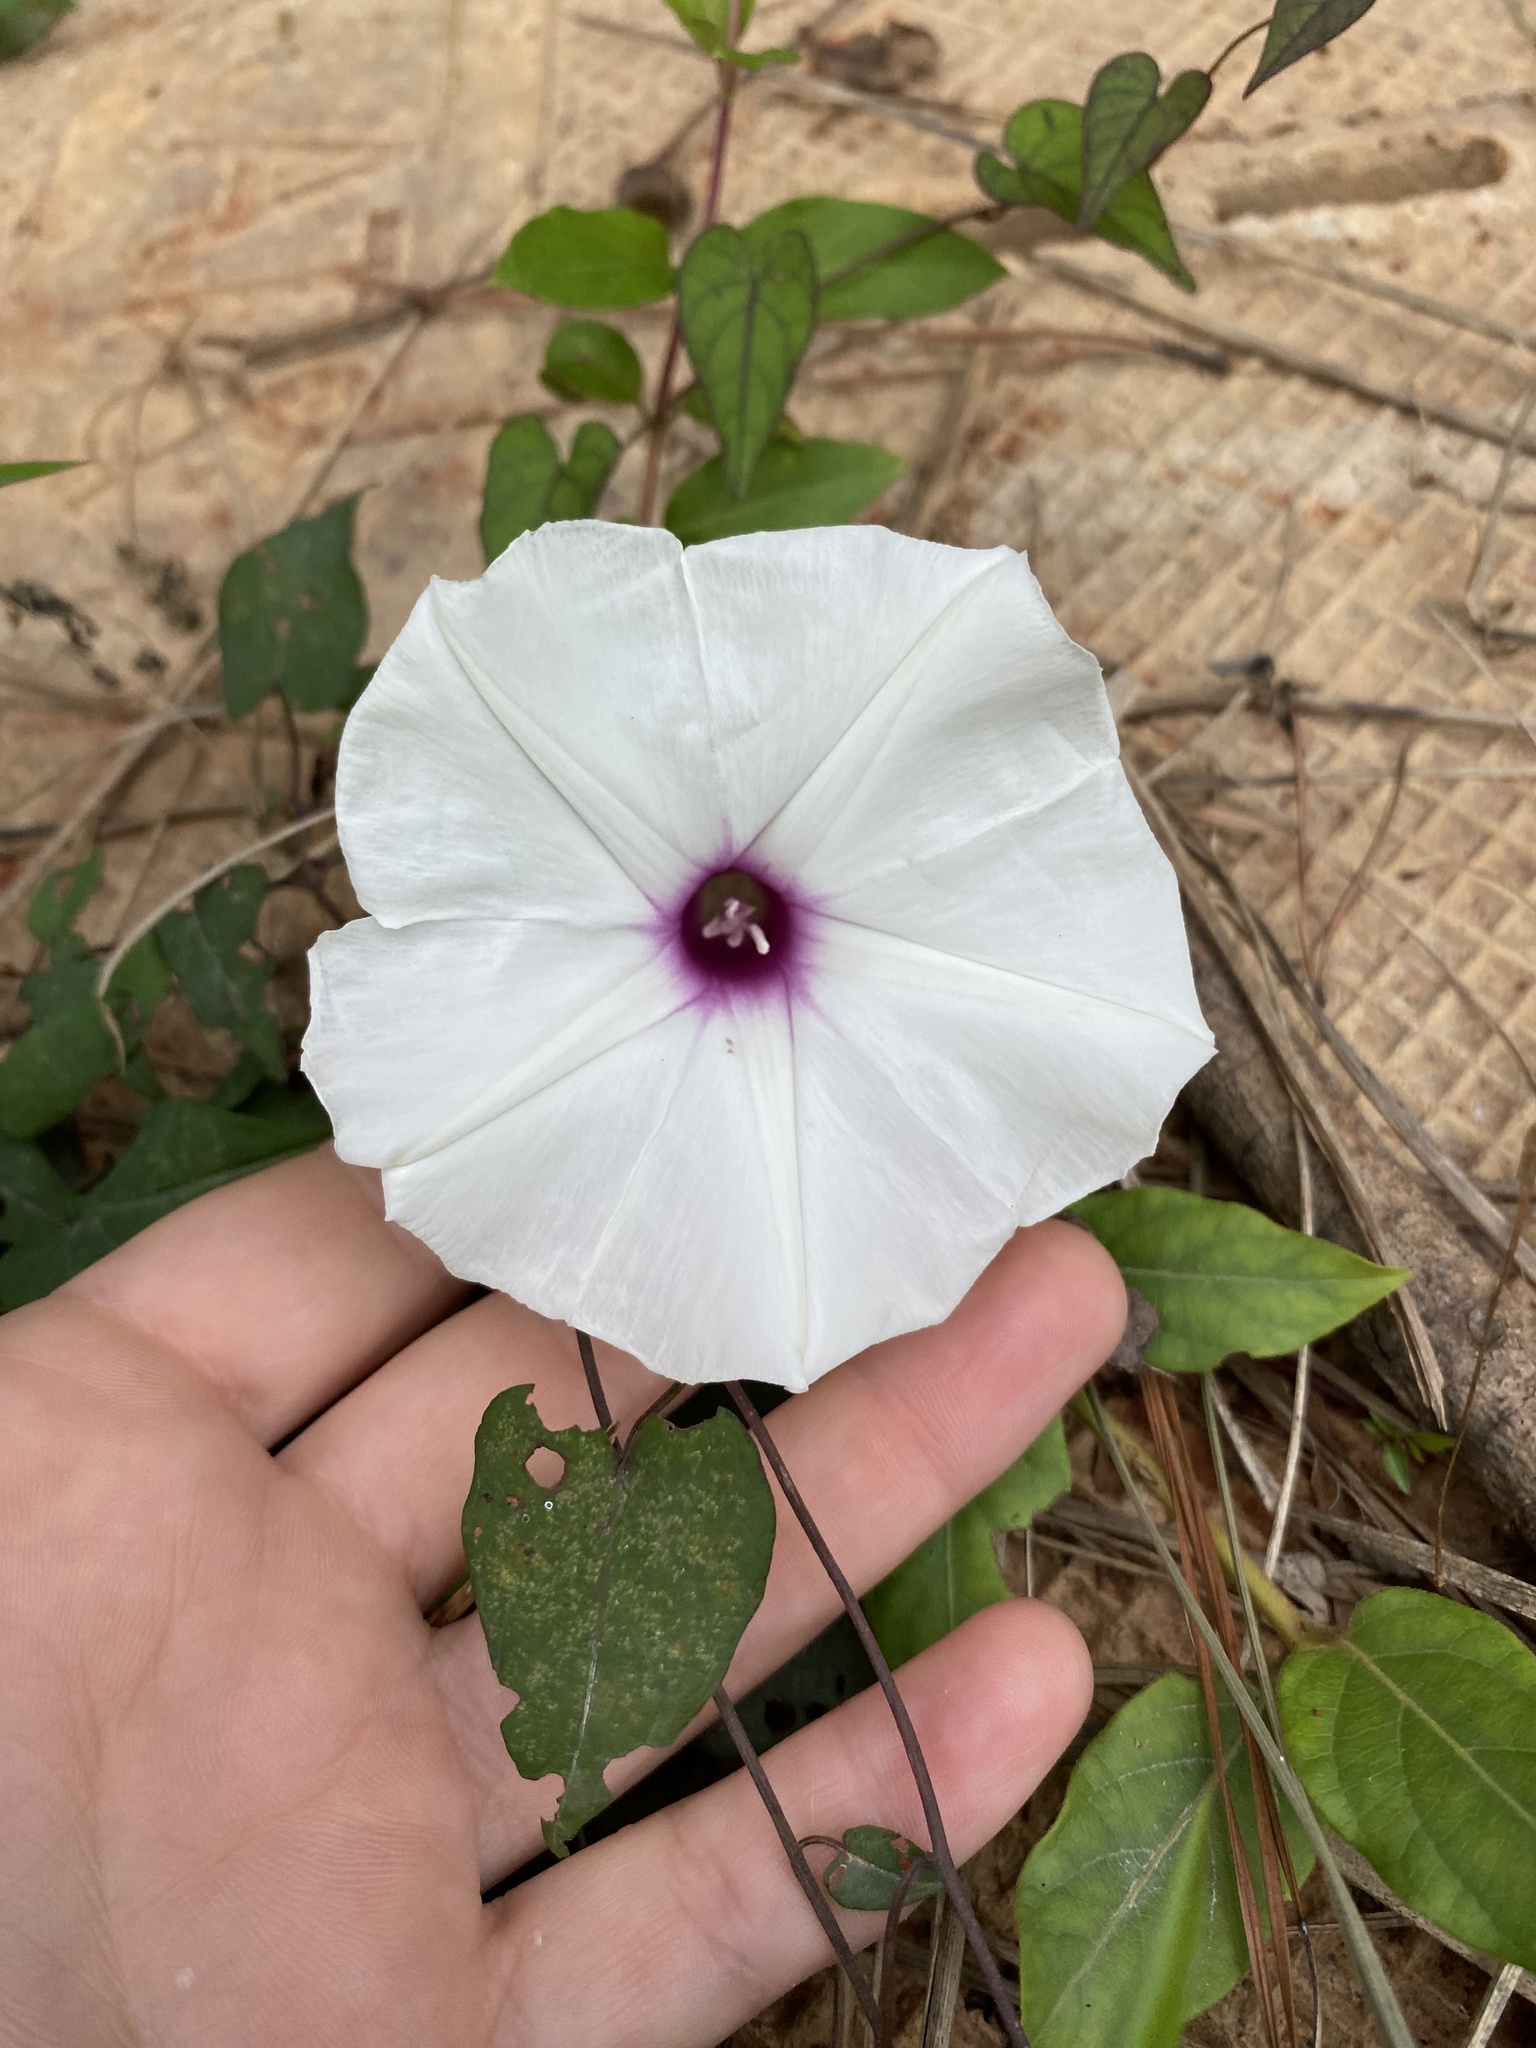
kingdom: Plantae
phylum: Tracheophyta
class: Magnoliopsida
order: Solanales
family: Convolvulaceae
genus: Ipomoea
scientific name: Ipomoea pandurata
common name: Man-of-the-earth
